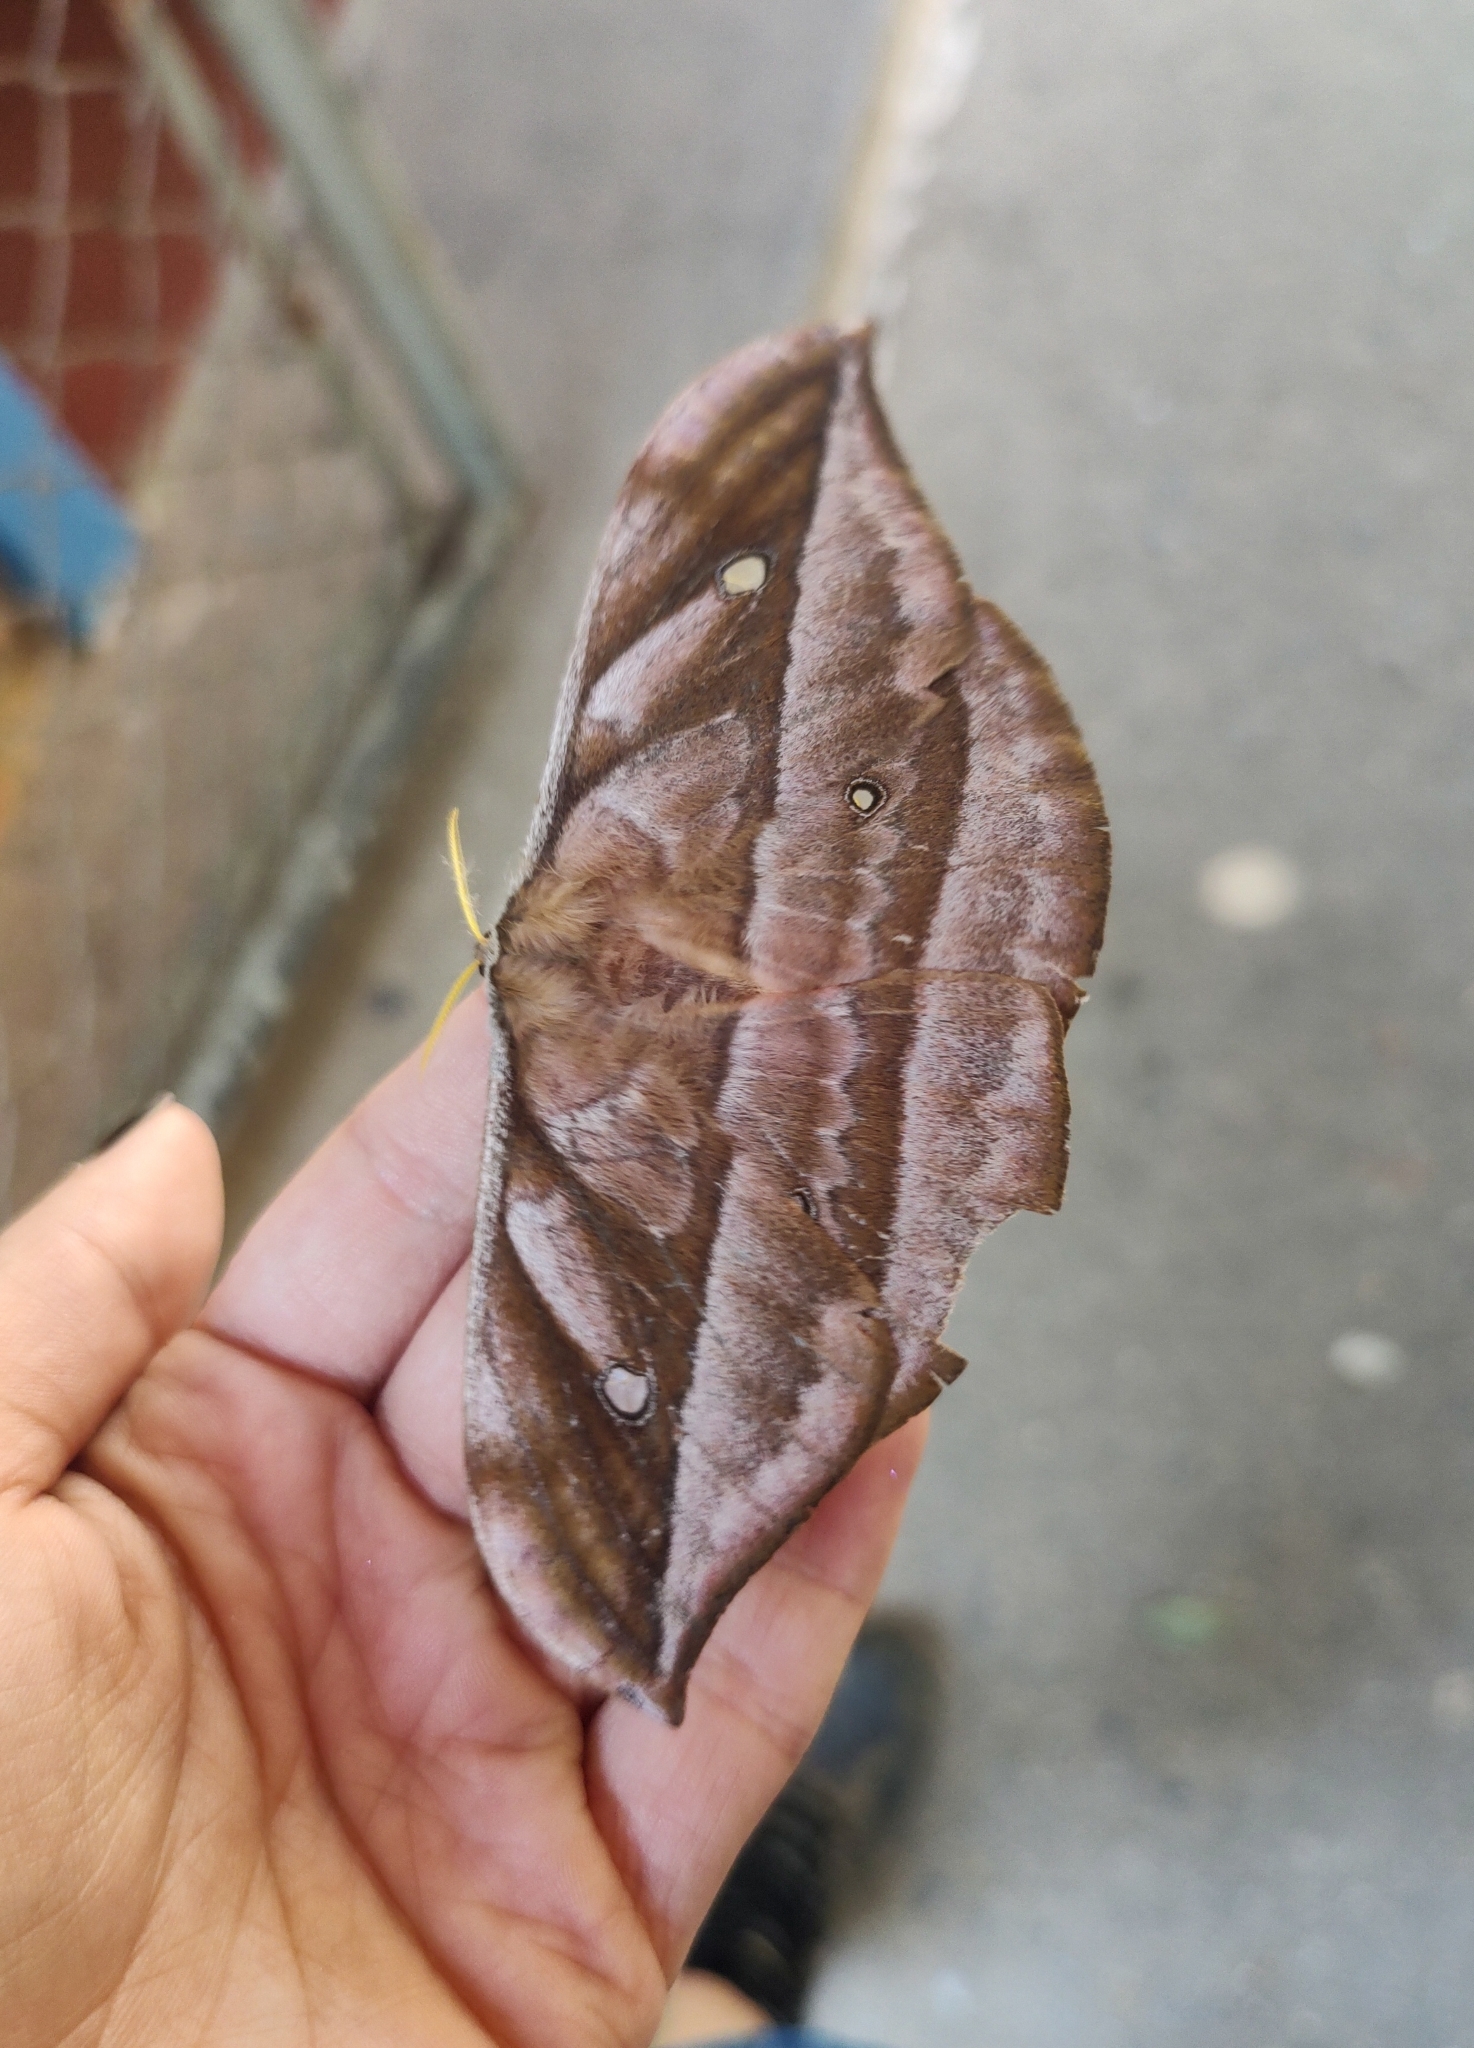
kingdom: Animalia
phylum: Arthropoda
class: Insecta
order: Lepidoptera
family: Saturniidae
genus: Copaxa
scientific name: Copaxa decrescens
